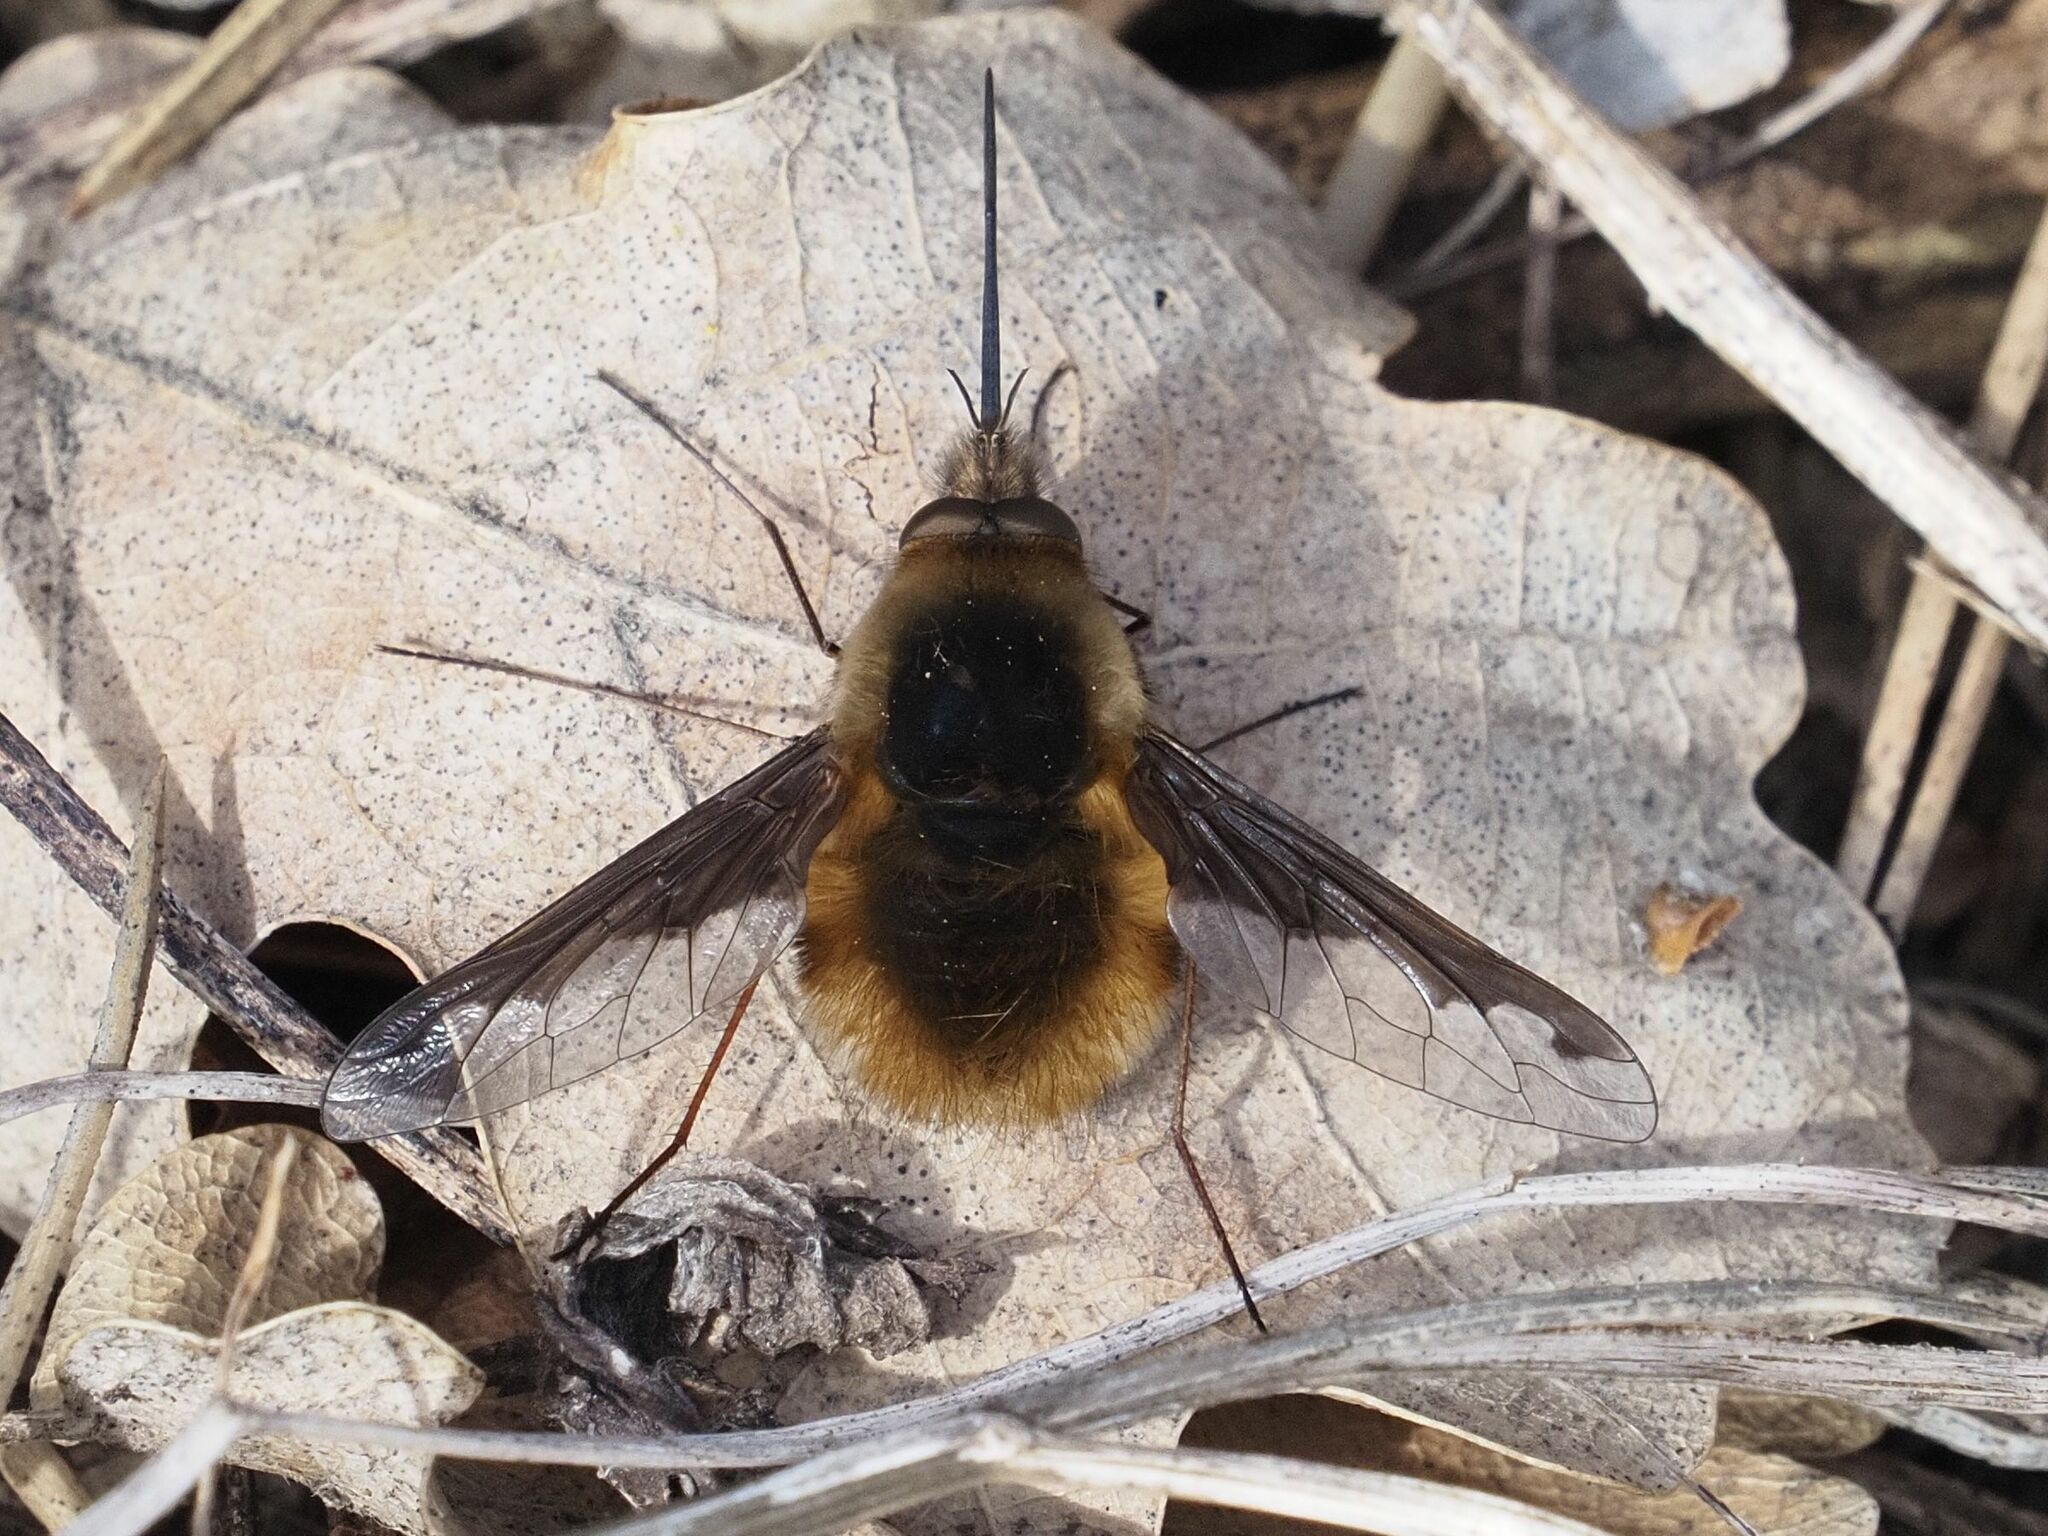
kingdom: Animalia
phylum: Arthropoda
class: Insecta
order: Diptera
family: Bombyliidae
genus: Bombylius
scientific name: Bombylius major
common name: Bee fly
